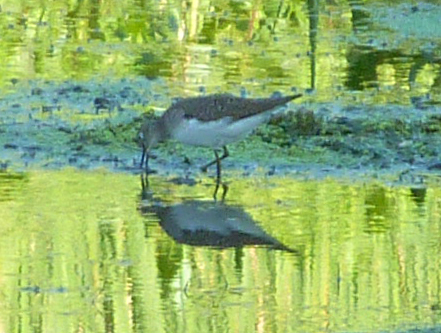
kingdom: Animalia
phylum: Chordata
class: Aves
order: Charadriiformes
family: Scolopacidae
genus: Tringa
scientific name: Tringa solitaria
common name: Solitary sandpiper
